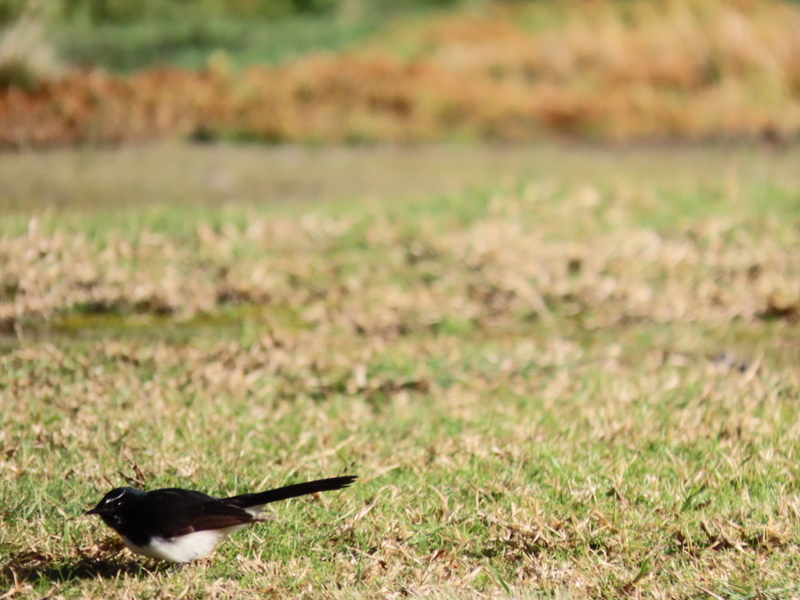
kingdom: Animalia
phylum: Chordata
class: Aves
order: Passeriformes
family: Rhipiduridae
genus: Rhipidura
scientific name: Rhipidura leucophrys
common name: Willie wagtail
